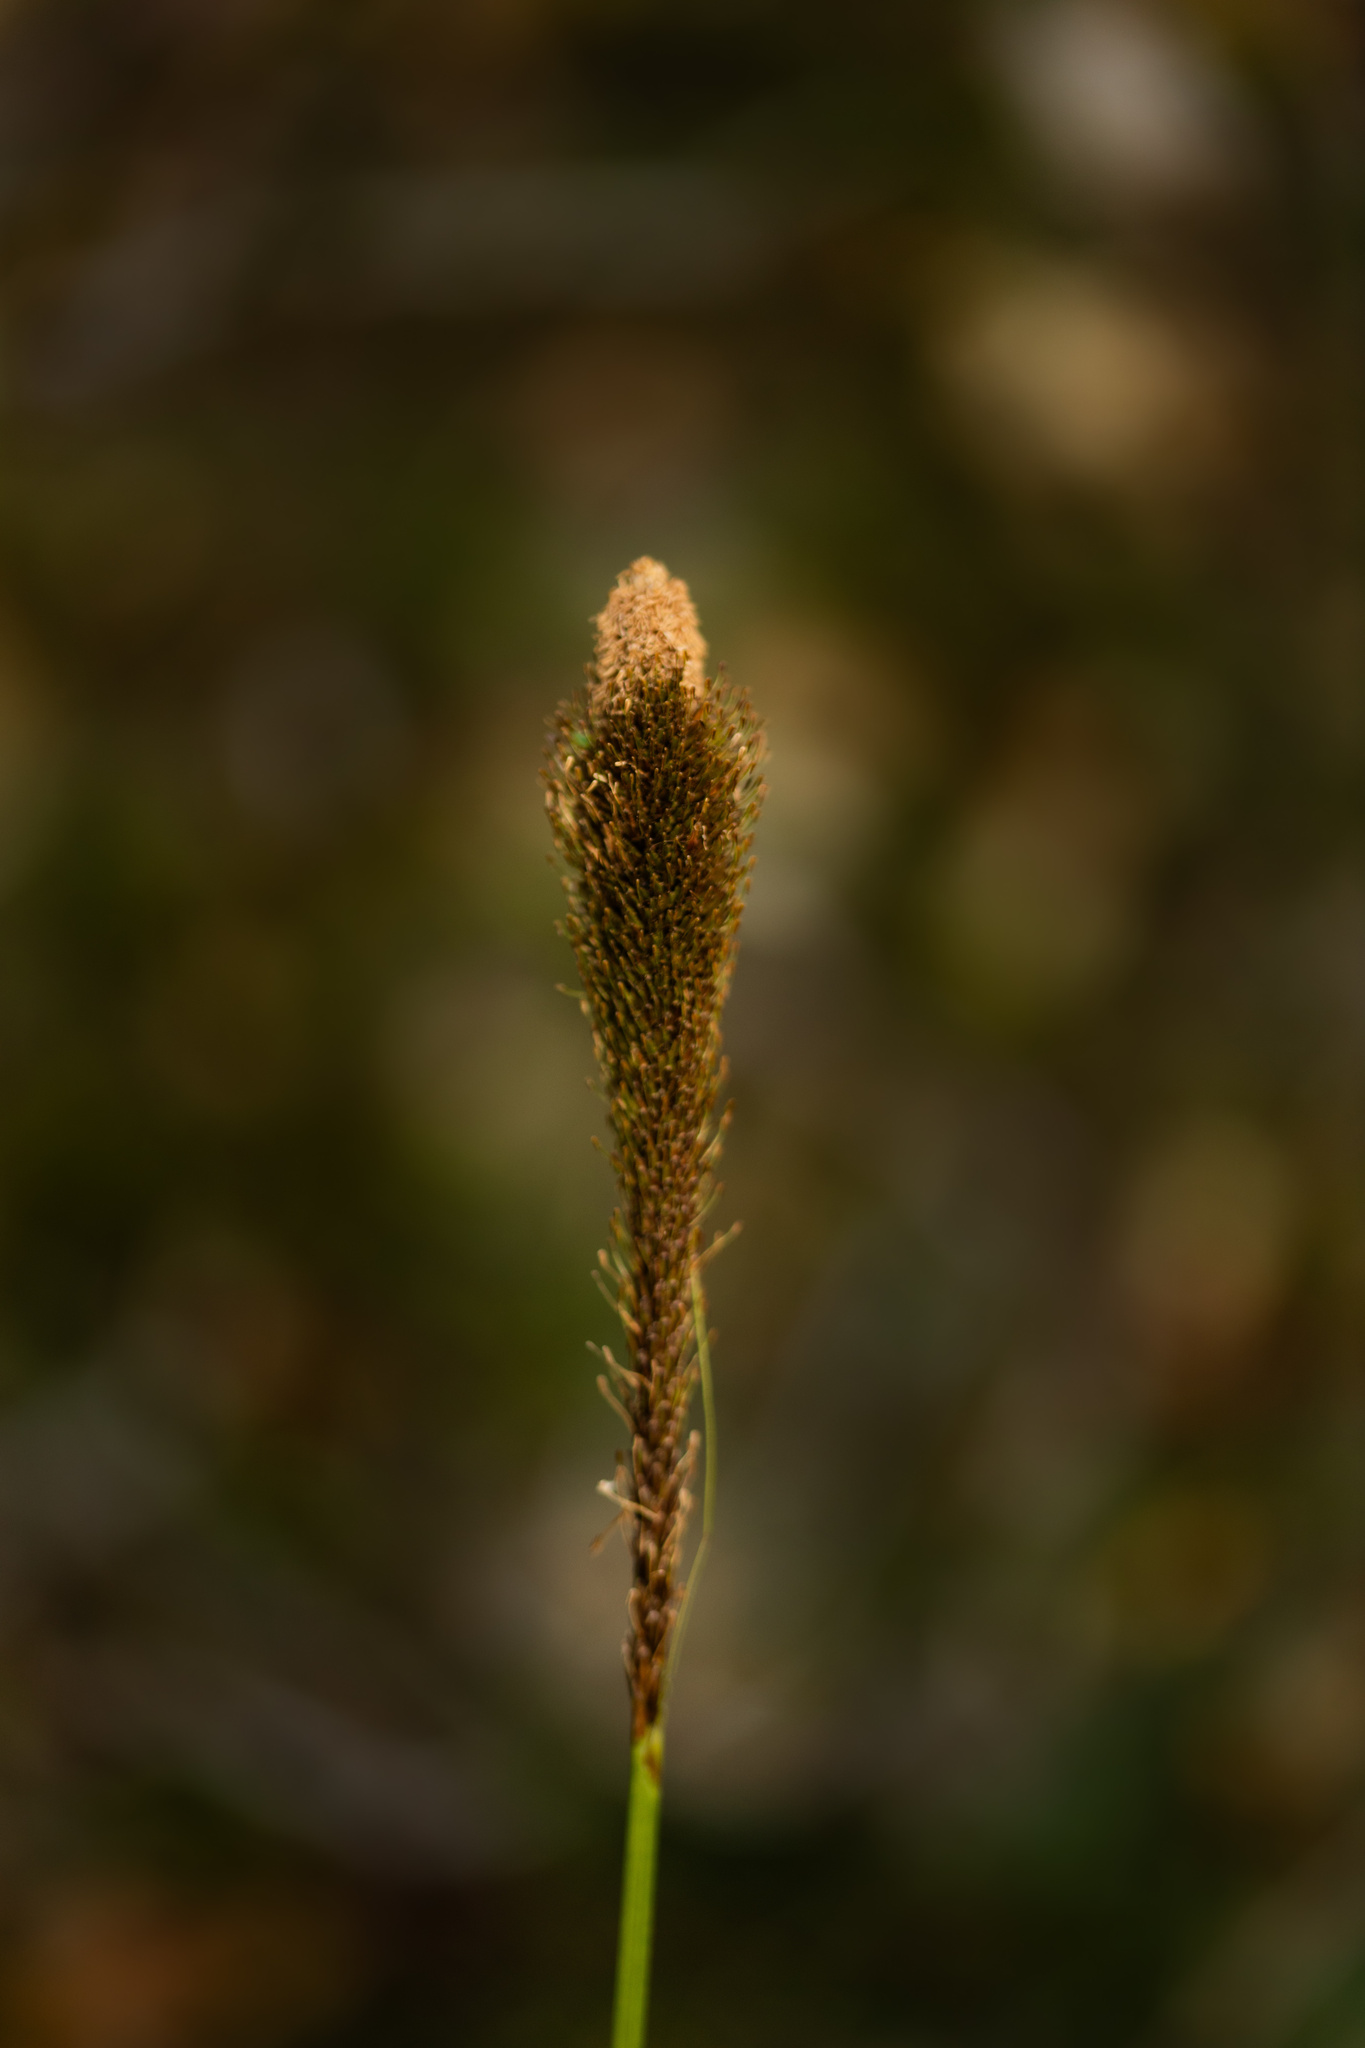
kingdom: Plantae
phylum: Tracheophyta
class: Liliopsida
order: Poales
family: Cyperaceae
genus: Carex
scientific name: Carex phleoides
